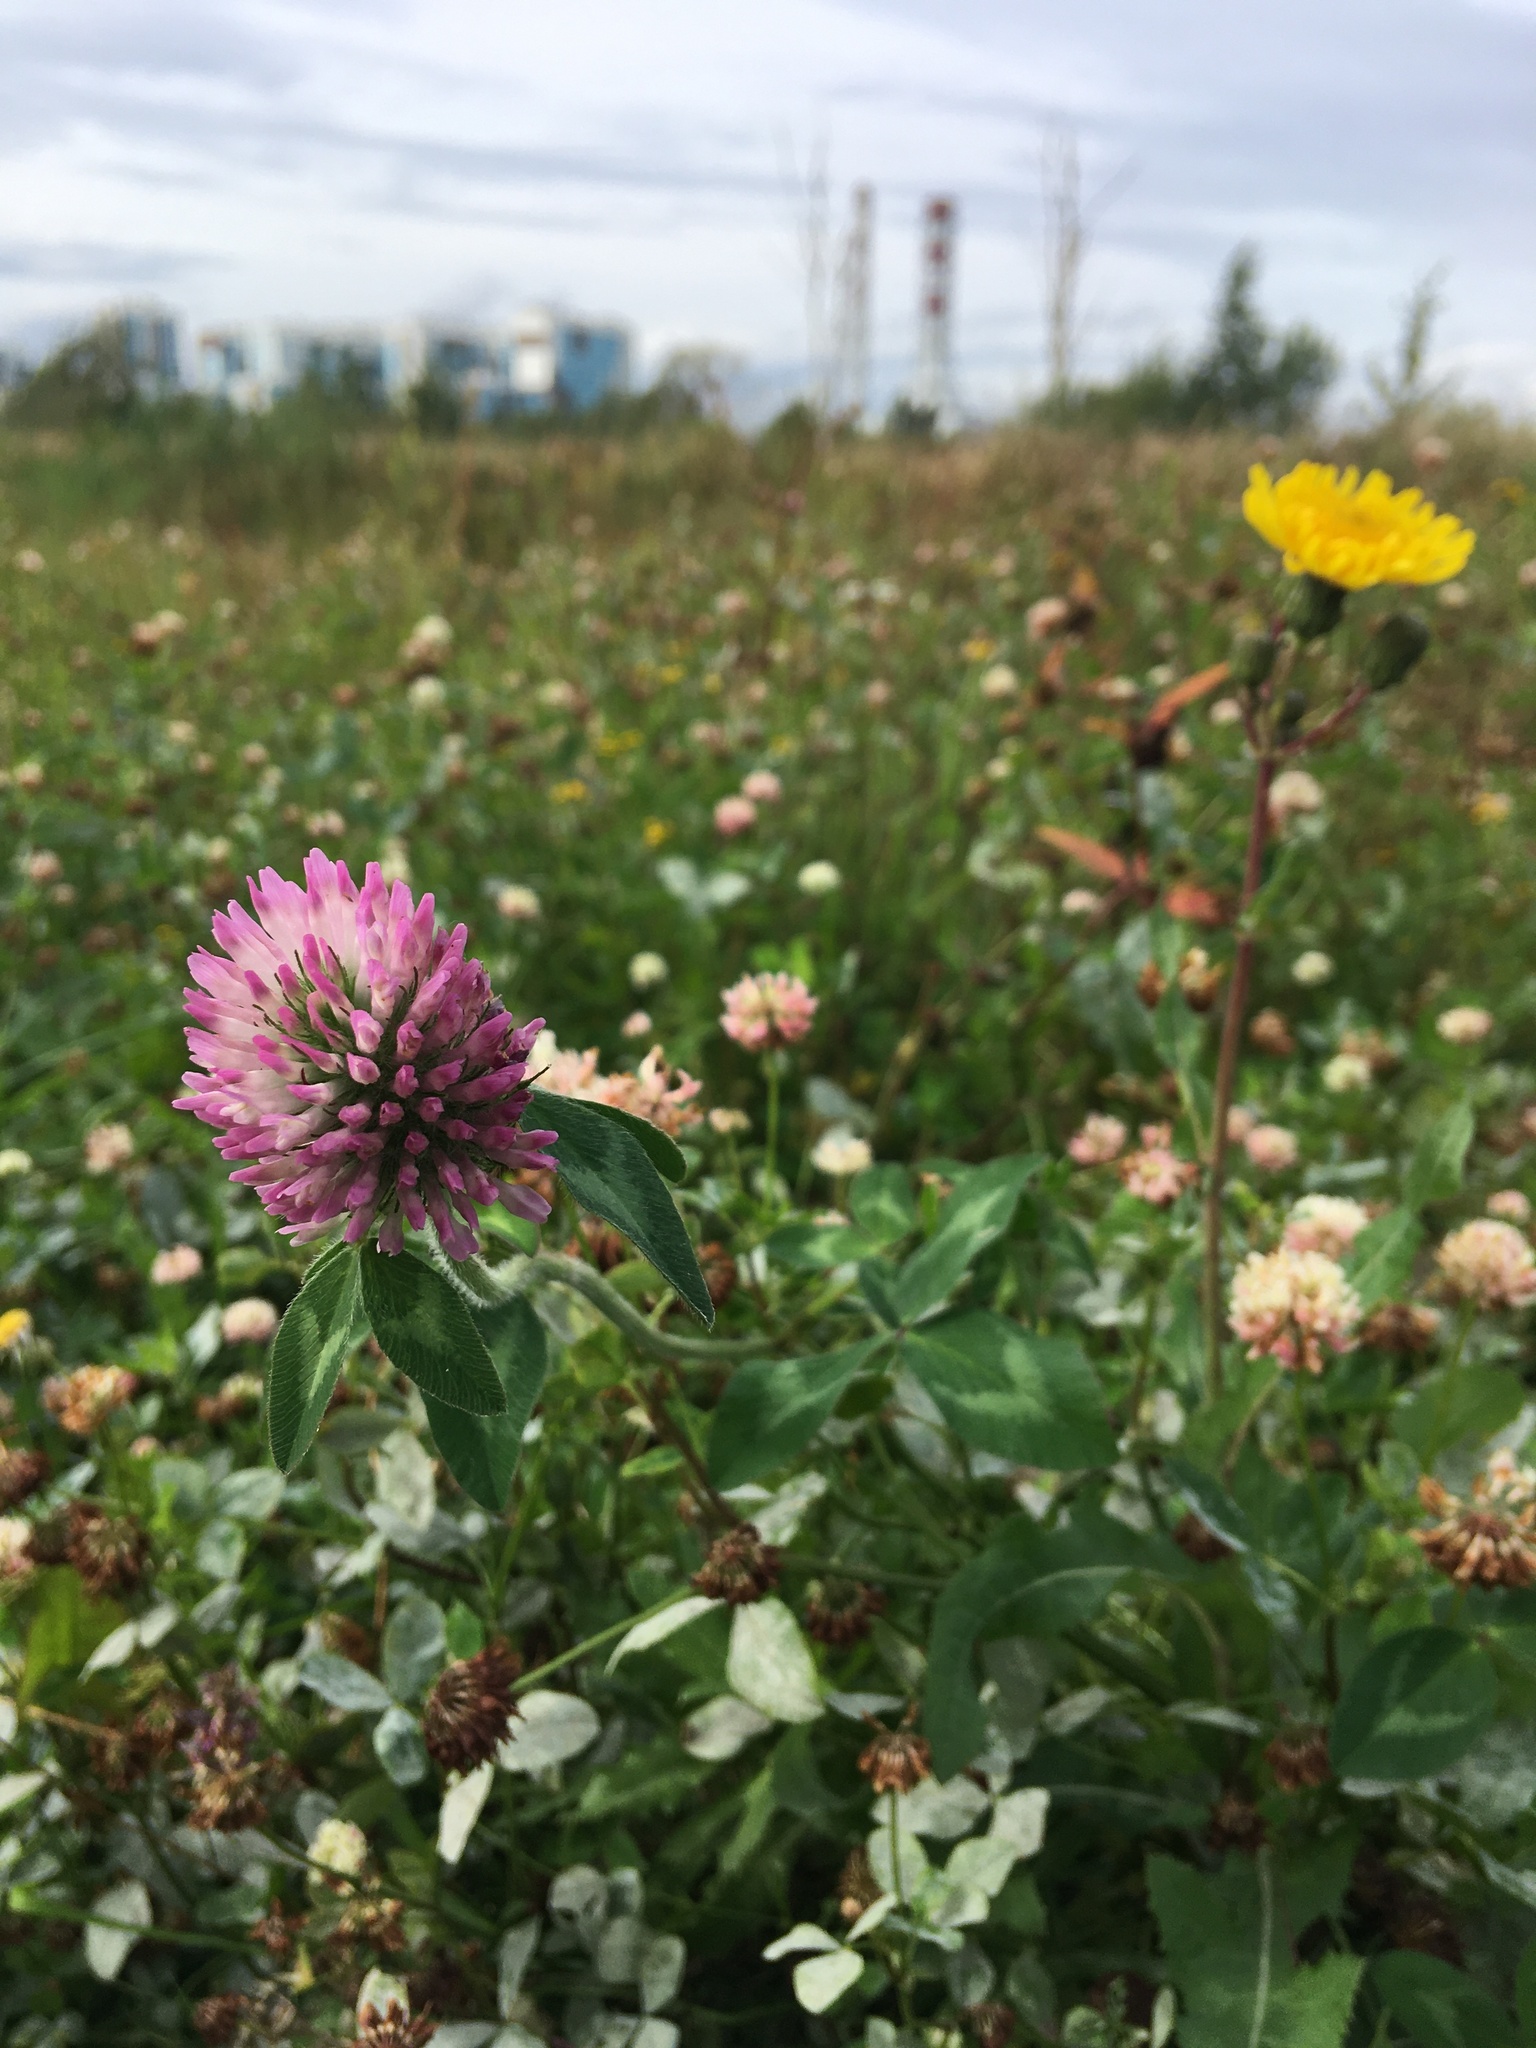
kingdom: Plantae
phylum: Tracheophyta
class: Magnoliopsida
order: Fabales
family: Fabaceae
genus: Trifolium
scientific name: Trifolium pratense
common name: Red clover
